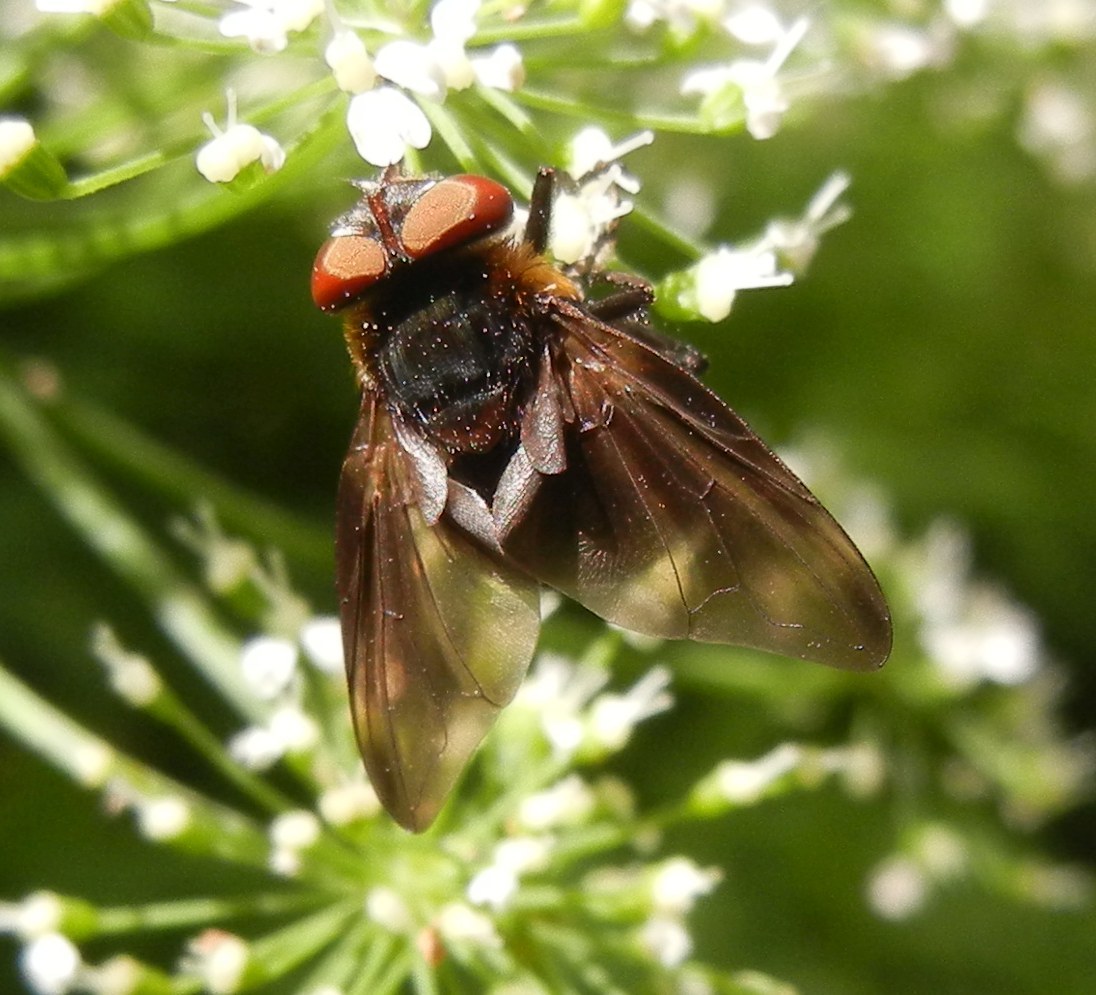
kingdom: Animalia
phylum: Arthropoda
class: Insecta
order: Diptera
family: Tachinidae
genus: Phasia
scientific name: Phasia hemiptera
